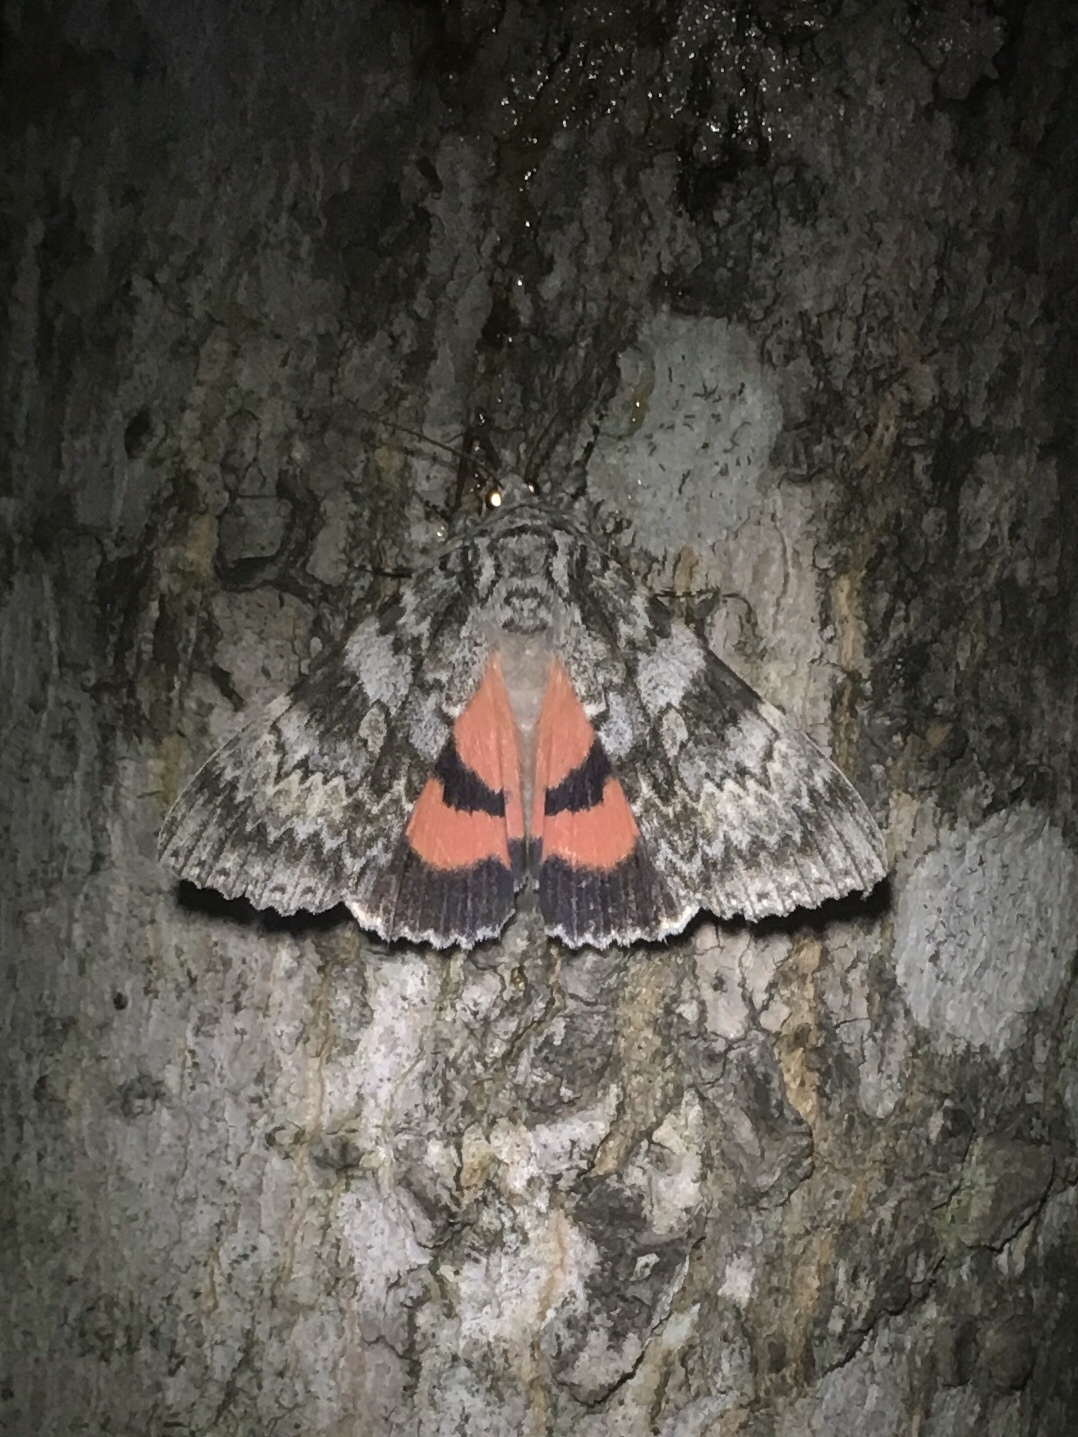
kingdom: Animalia
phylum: Arthropoda
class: Insecta
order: Lepidoptera
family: Erebidae
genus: Catocala
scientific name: Catocala semirelicta
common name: Semirelict underwing moth
